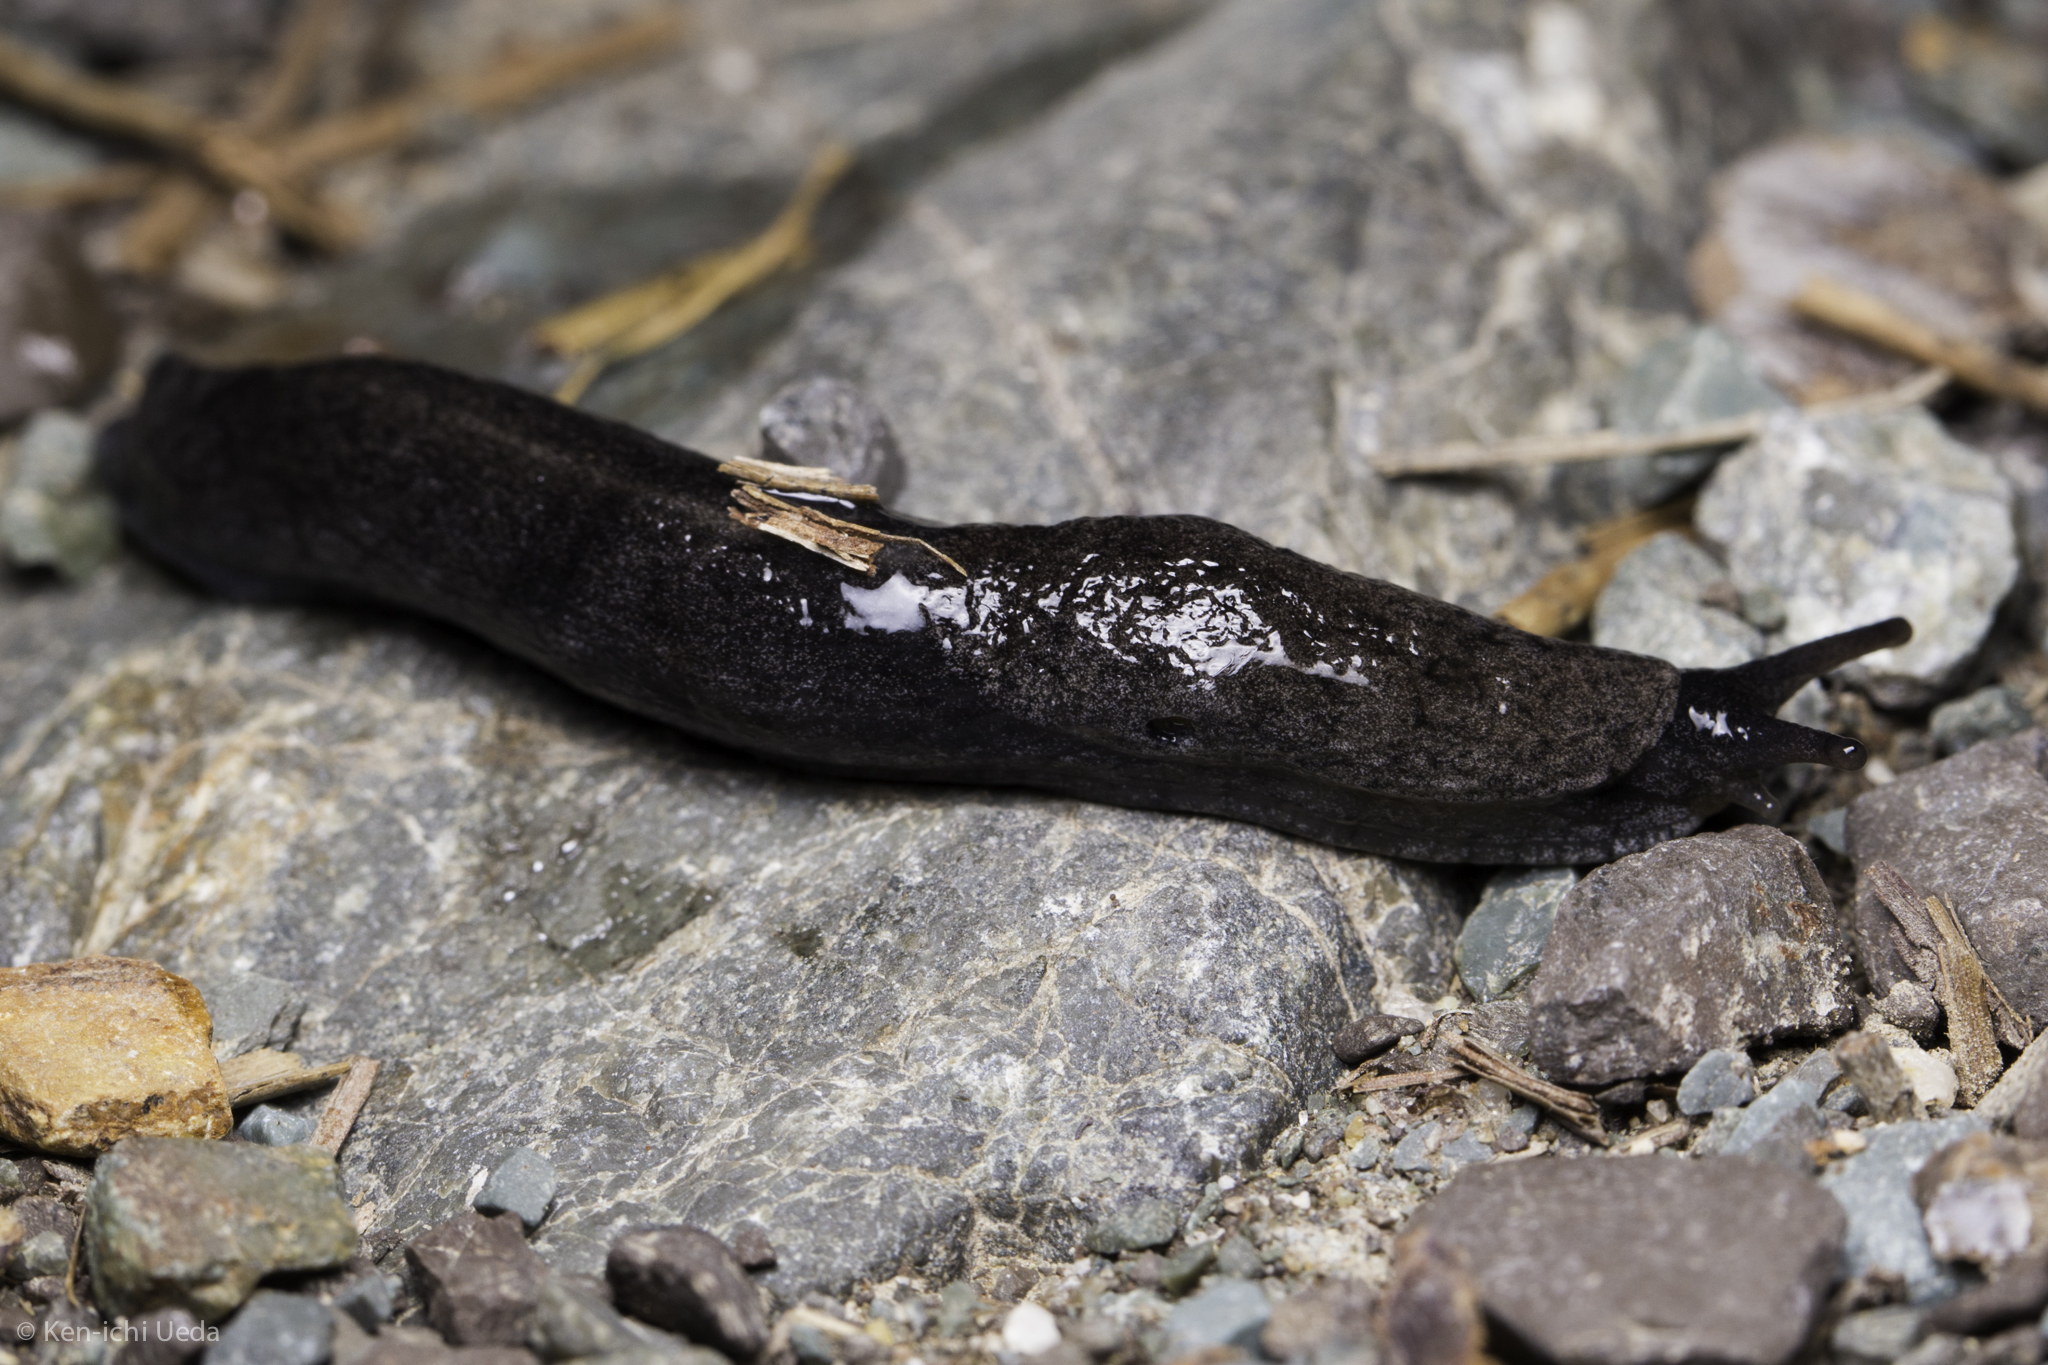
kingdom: Animalia
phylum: Mollusca
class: Gastropoda
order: Stylommatophora
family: Ariolimacidae
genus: Hesperarion
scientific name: Hesperarion niger
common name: Black western slug
